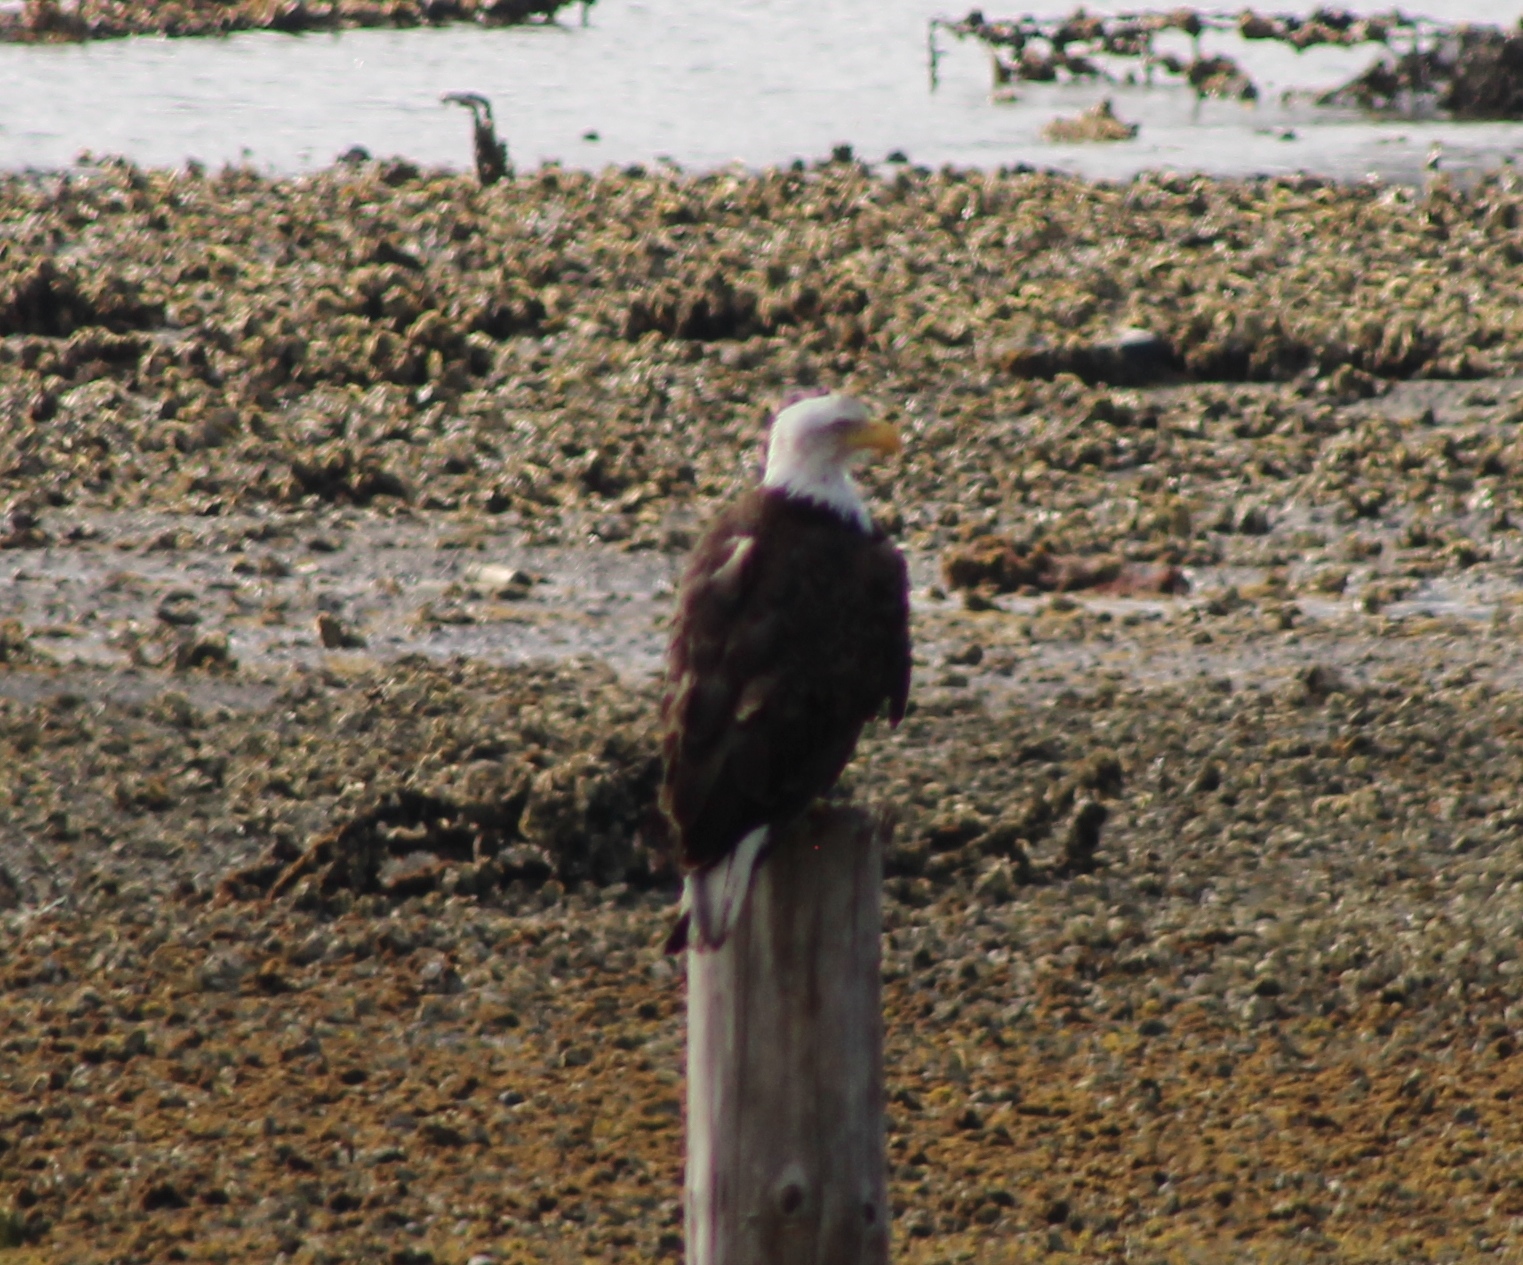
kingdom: Animalia
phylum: Chordata
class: Aves
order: Accipitriformes
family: Accipitridae
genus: Haliaeetus
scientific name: Haliaeetus leucocephalus
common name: Bald eagle
